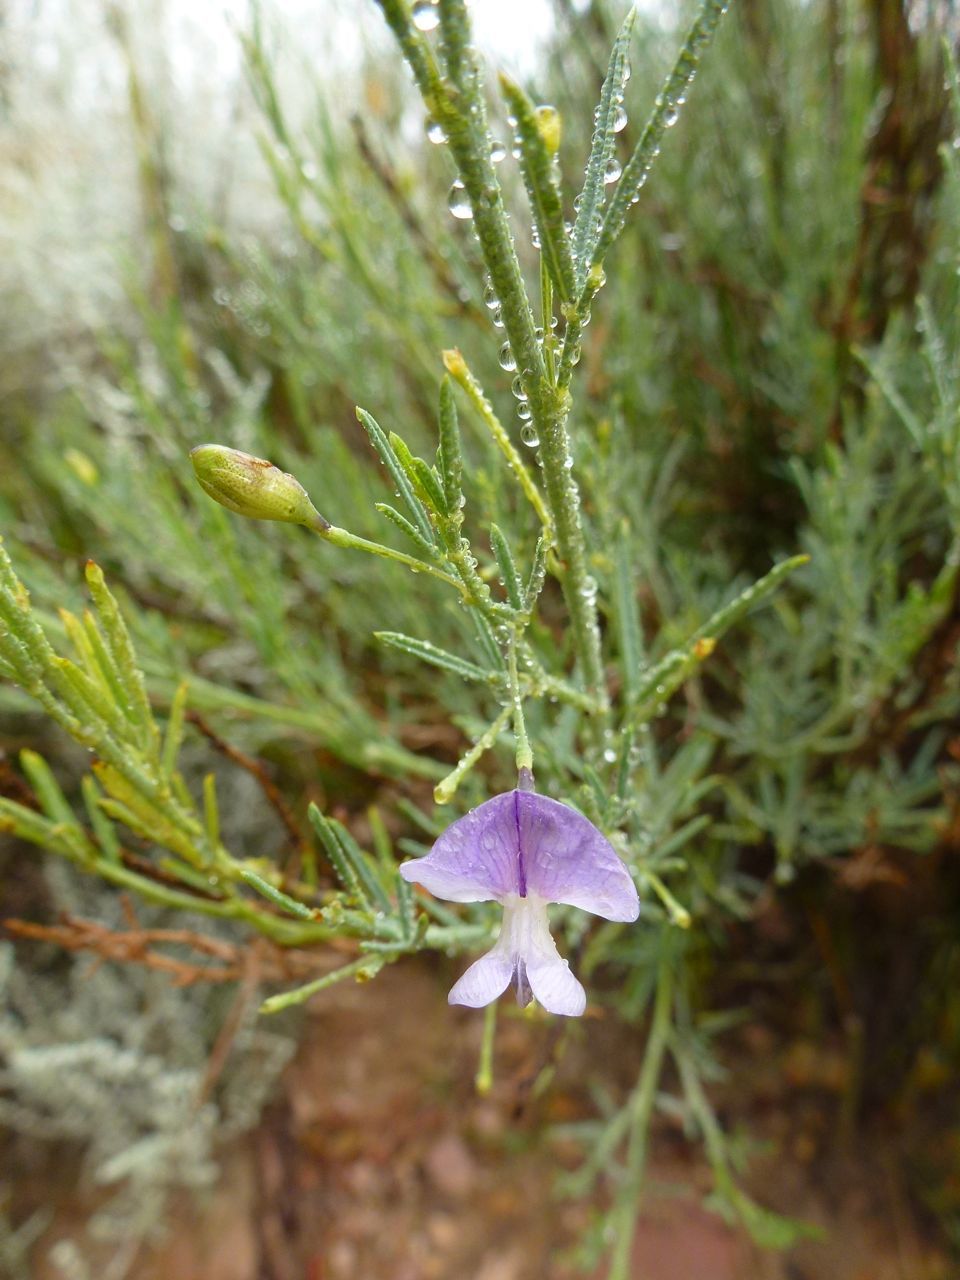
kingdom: Plantae
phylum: Tracheophyta
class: Magnoliopsida
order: Fabales
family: Fabaceae
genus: Psoralea
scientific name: Psoralea axillaris
